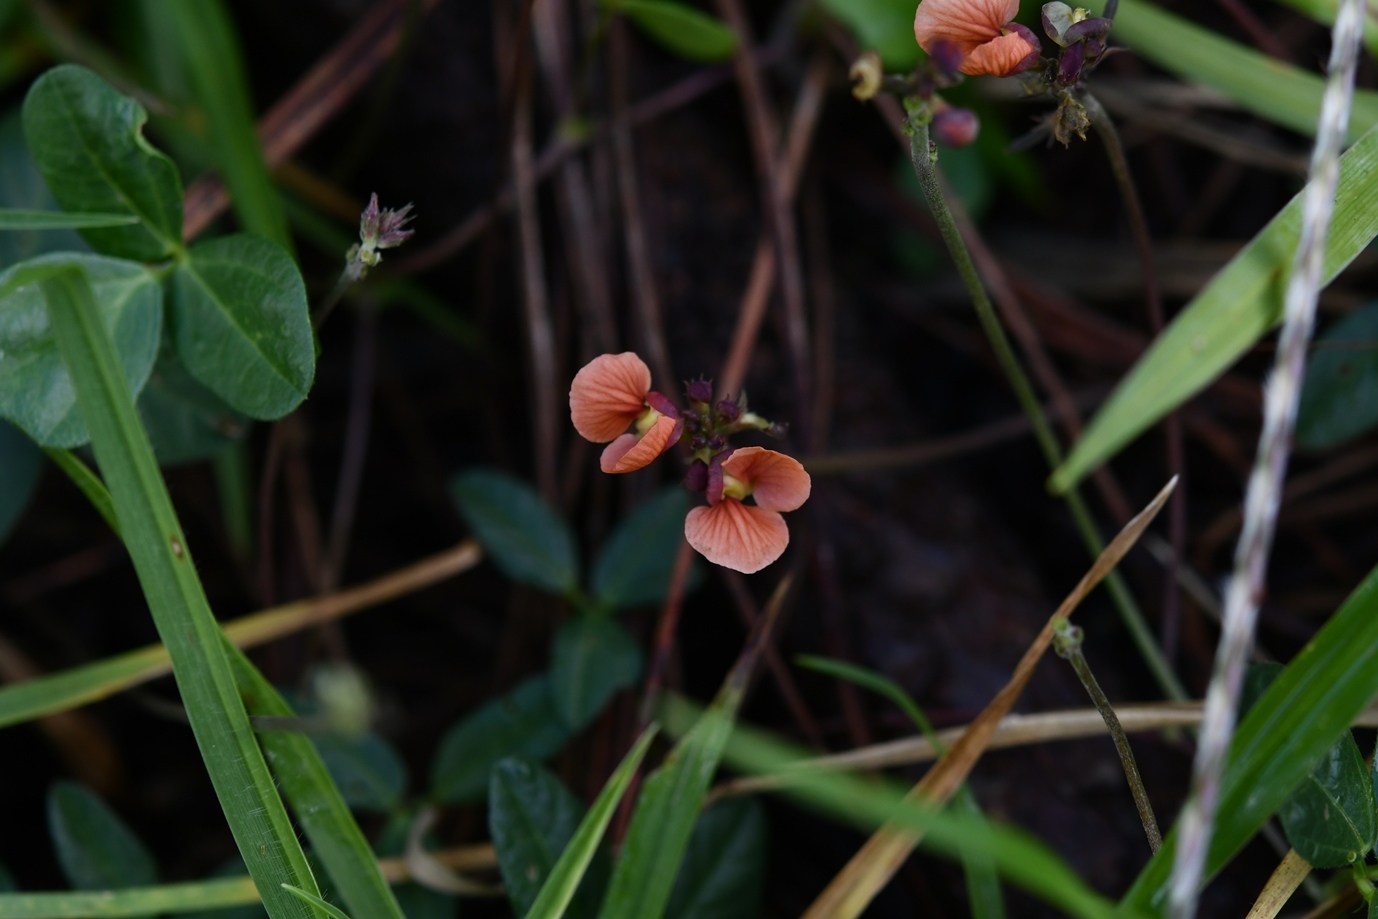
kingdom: Plantae
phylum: Tracheophyta
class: Magnoliopsida
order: Fabales
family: Fabaceae
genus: Macroptilium
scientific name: Macroptilium gibbosifolium
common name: Variableleaf bushbean
